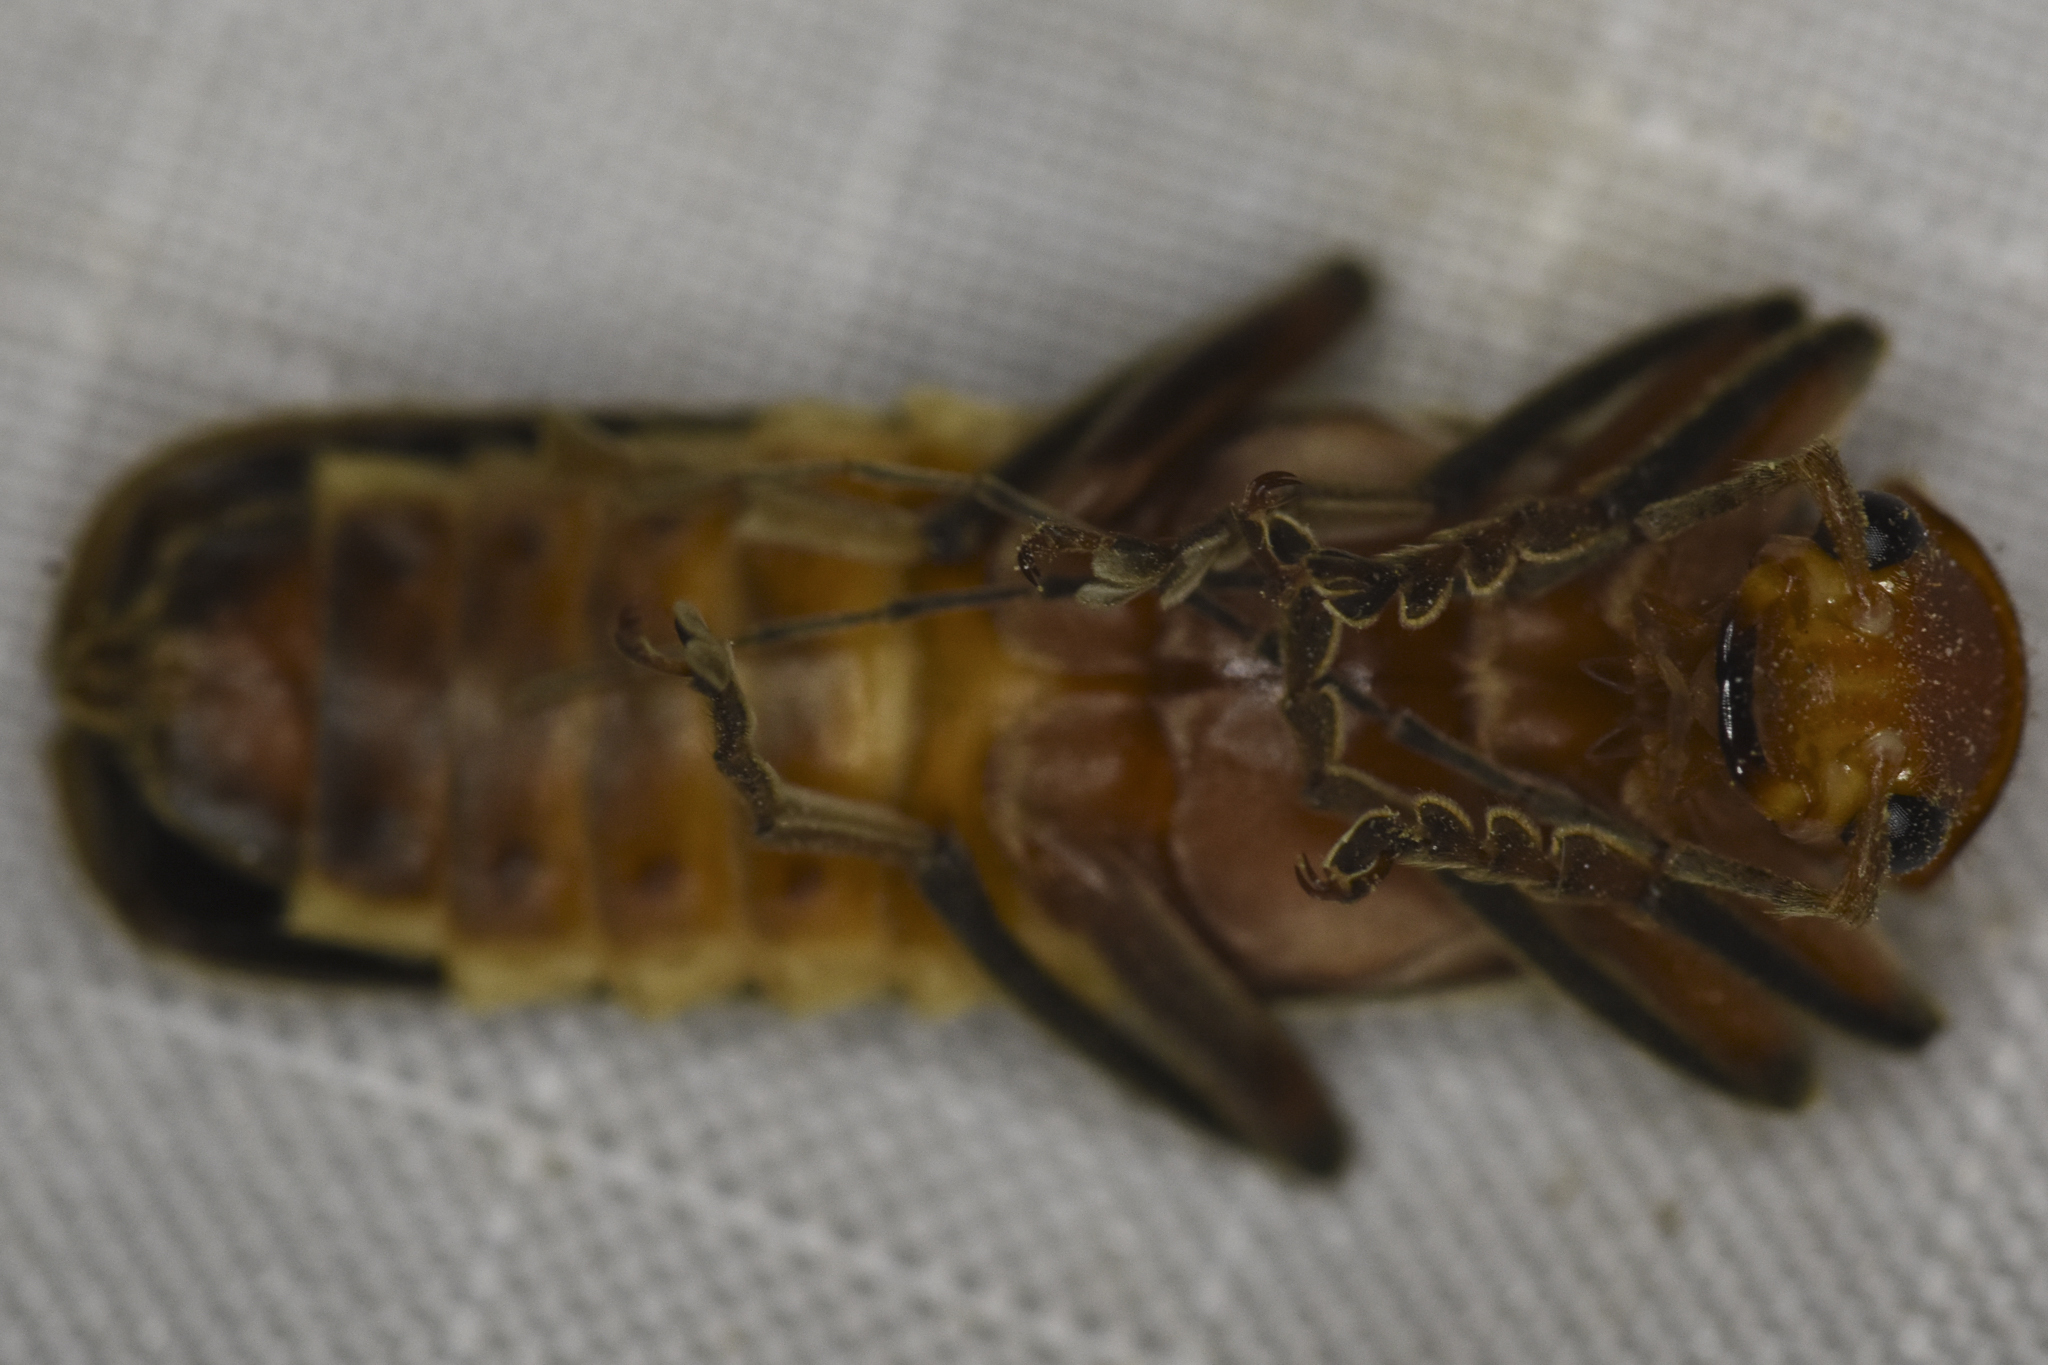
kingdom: Animalia
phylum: Arthropoda
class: Insecta
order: Coleoptera
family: Cantharidae
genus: Pacificanthia
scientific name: Pacificanthia consors
